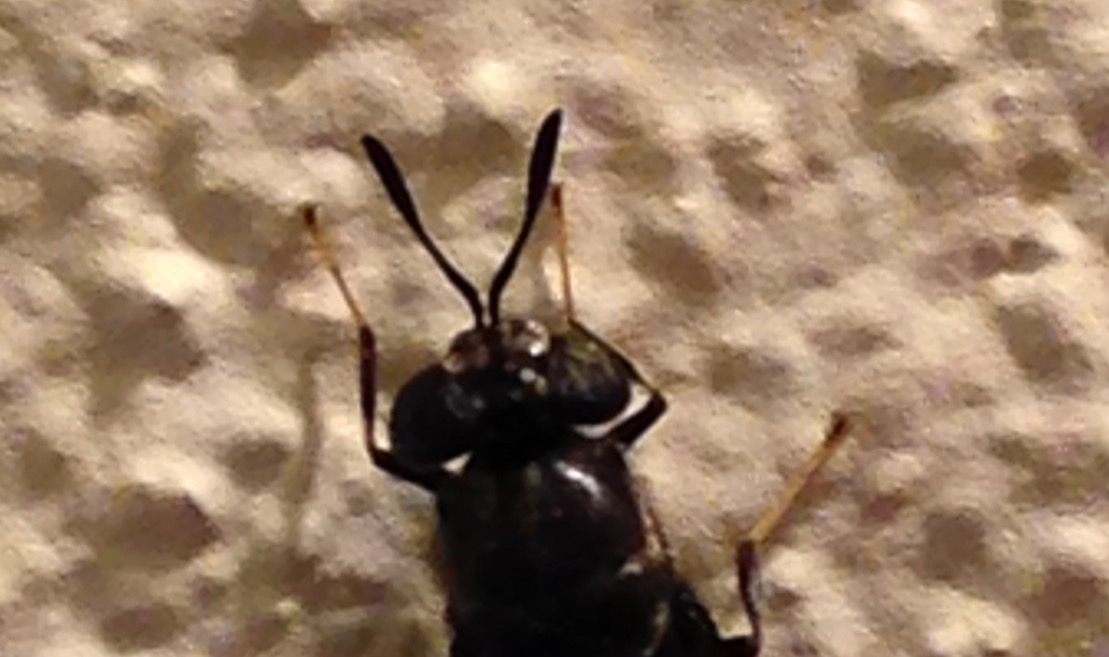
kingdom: Animalia
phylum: Arthropoda
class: Insecta
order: Diptera
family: Stratiomyidae
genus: Hermetia
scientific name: Hermetia illucens
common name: Black soldier fly
